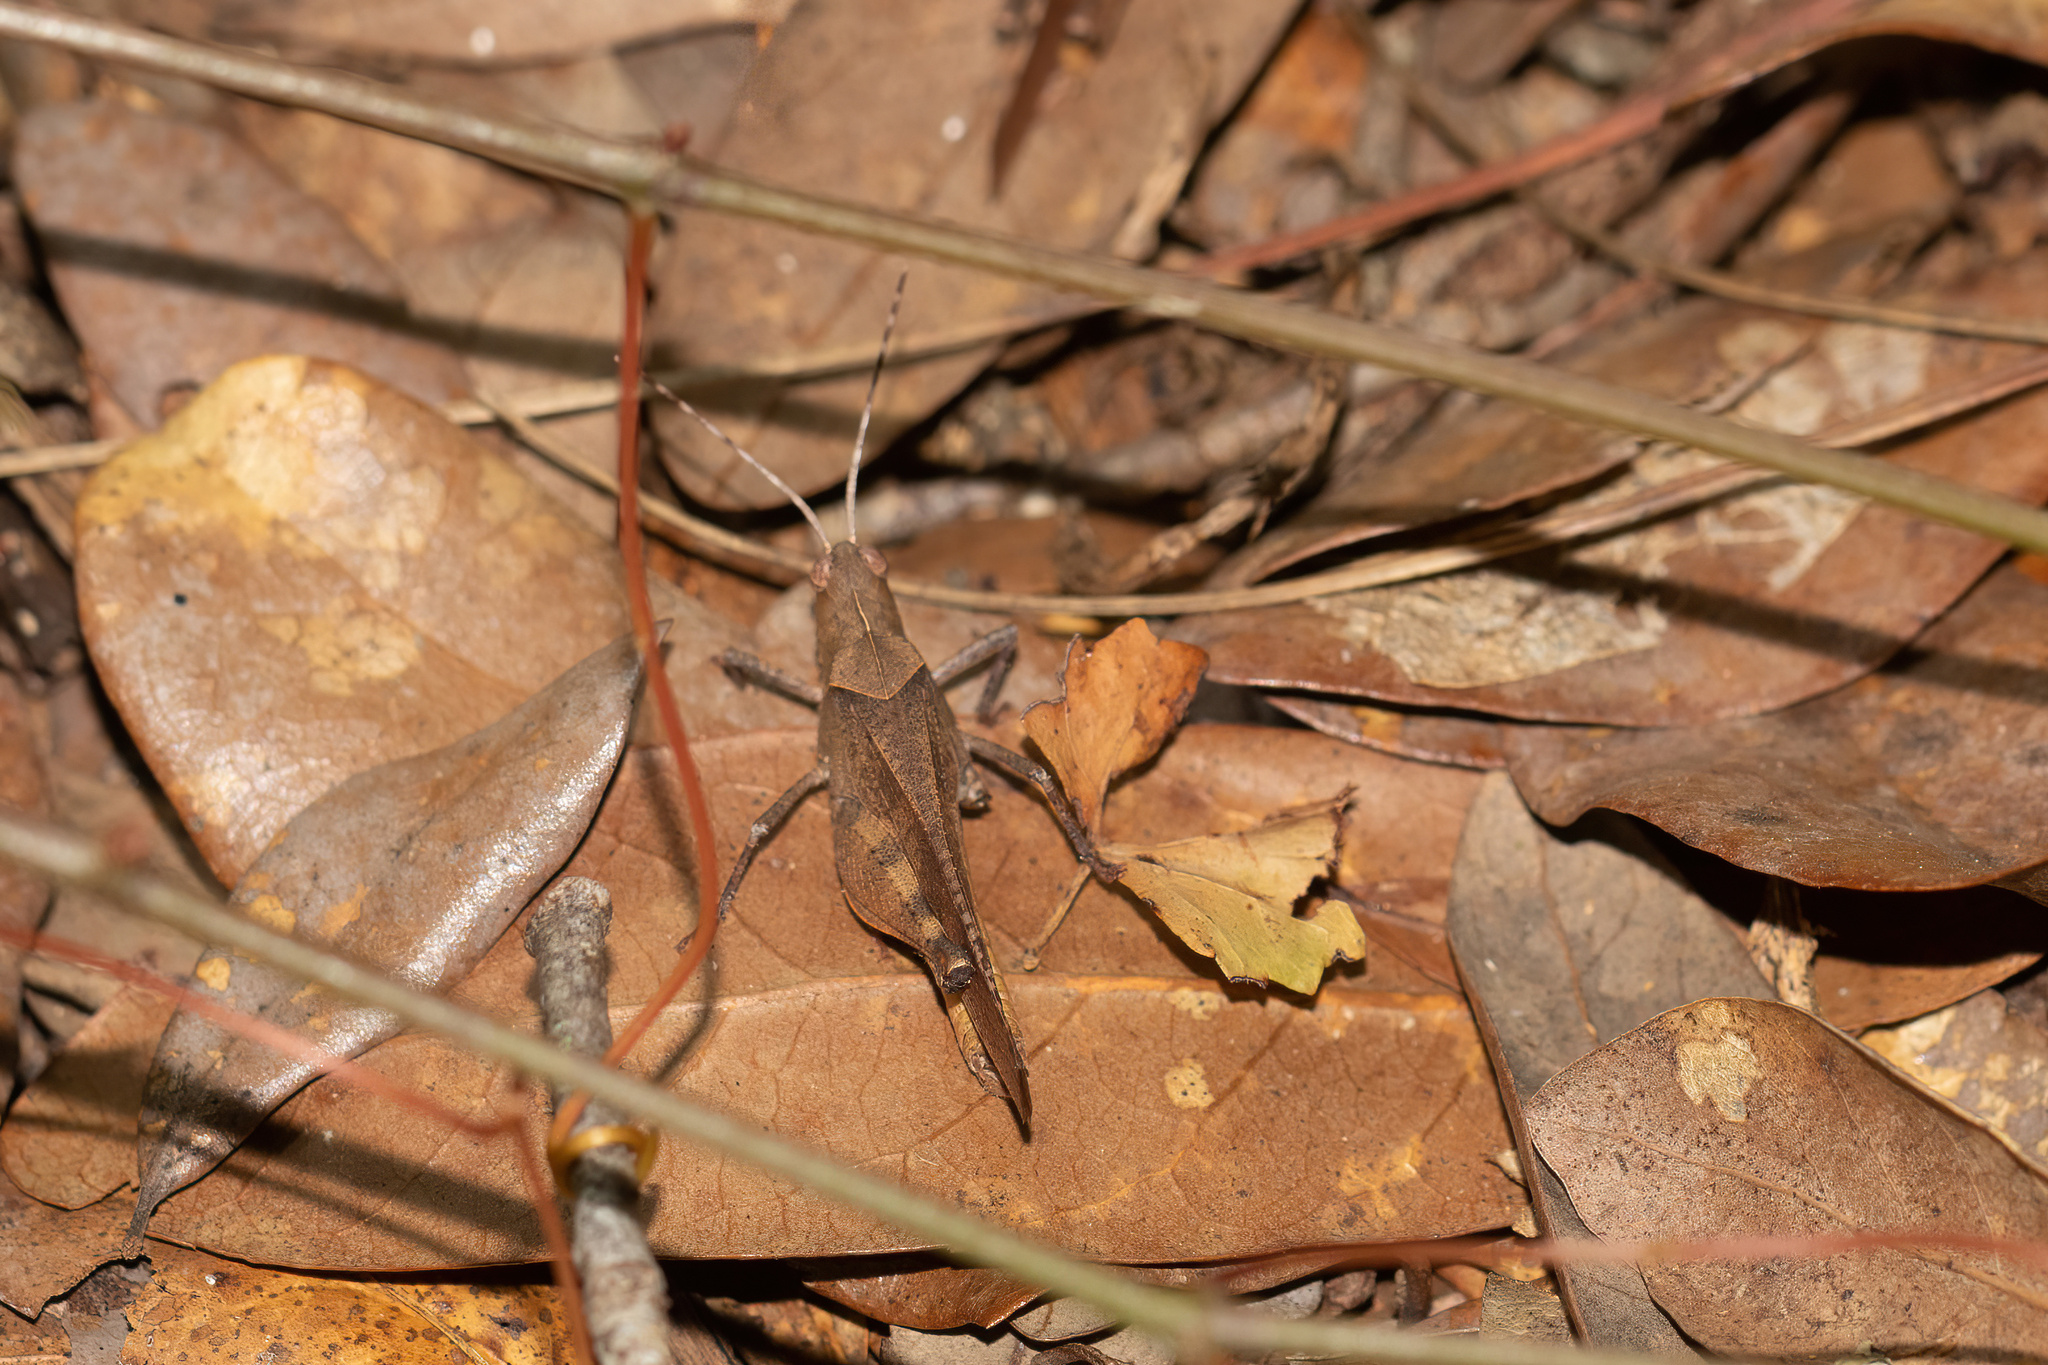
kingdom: Animalia
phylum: Arthropoda
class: Insecta
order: Orthoptera
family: Acrididae
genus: Spharagemon
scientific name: Spharagemon crepitans
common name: Crepitating grasshopper
